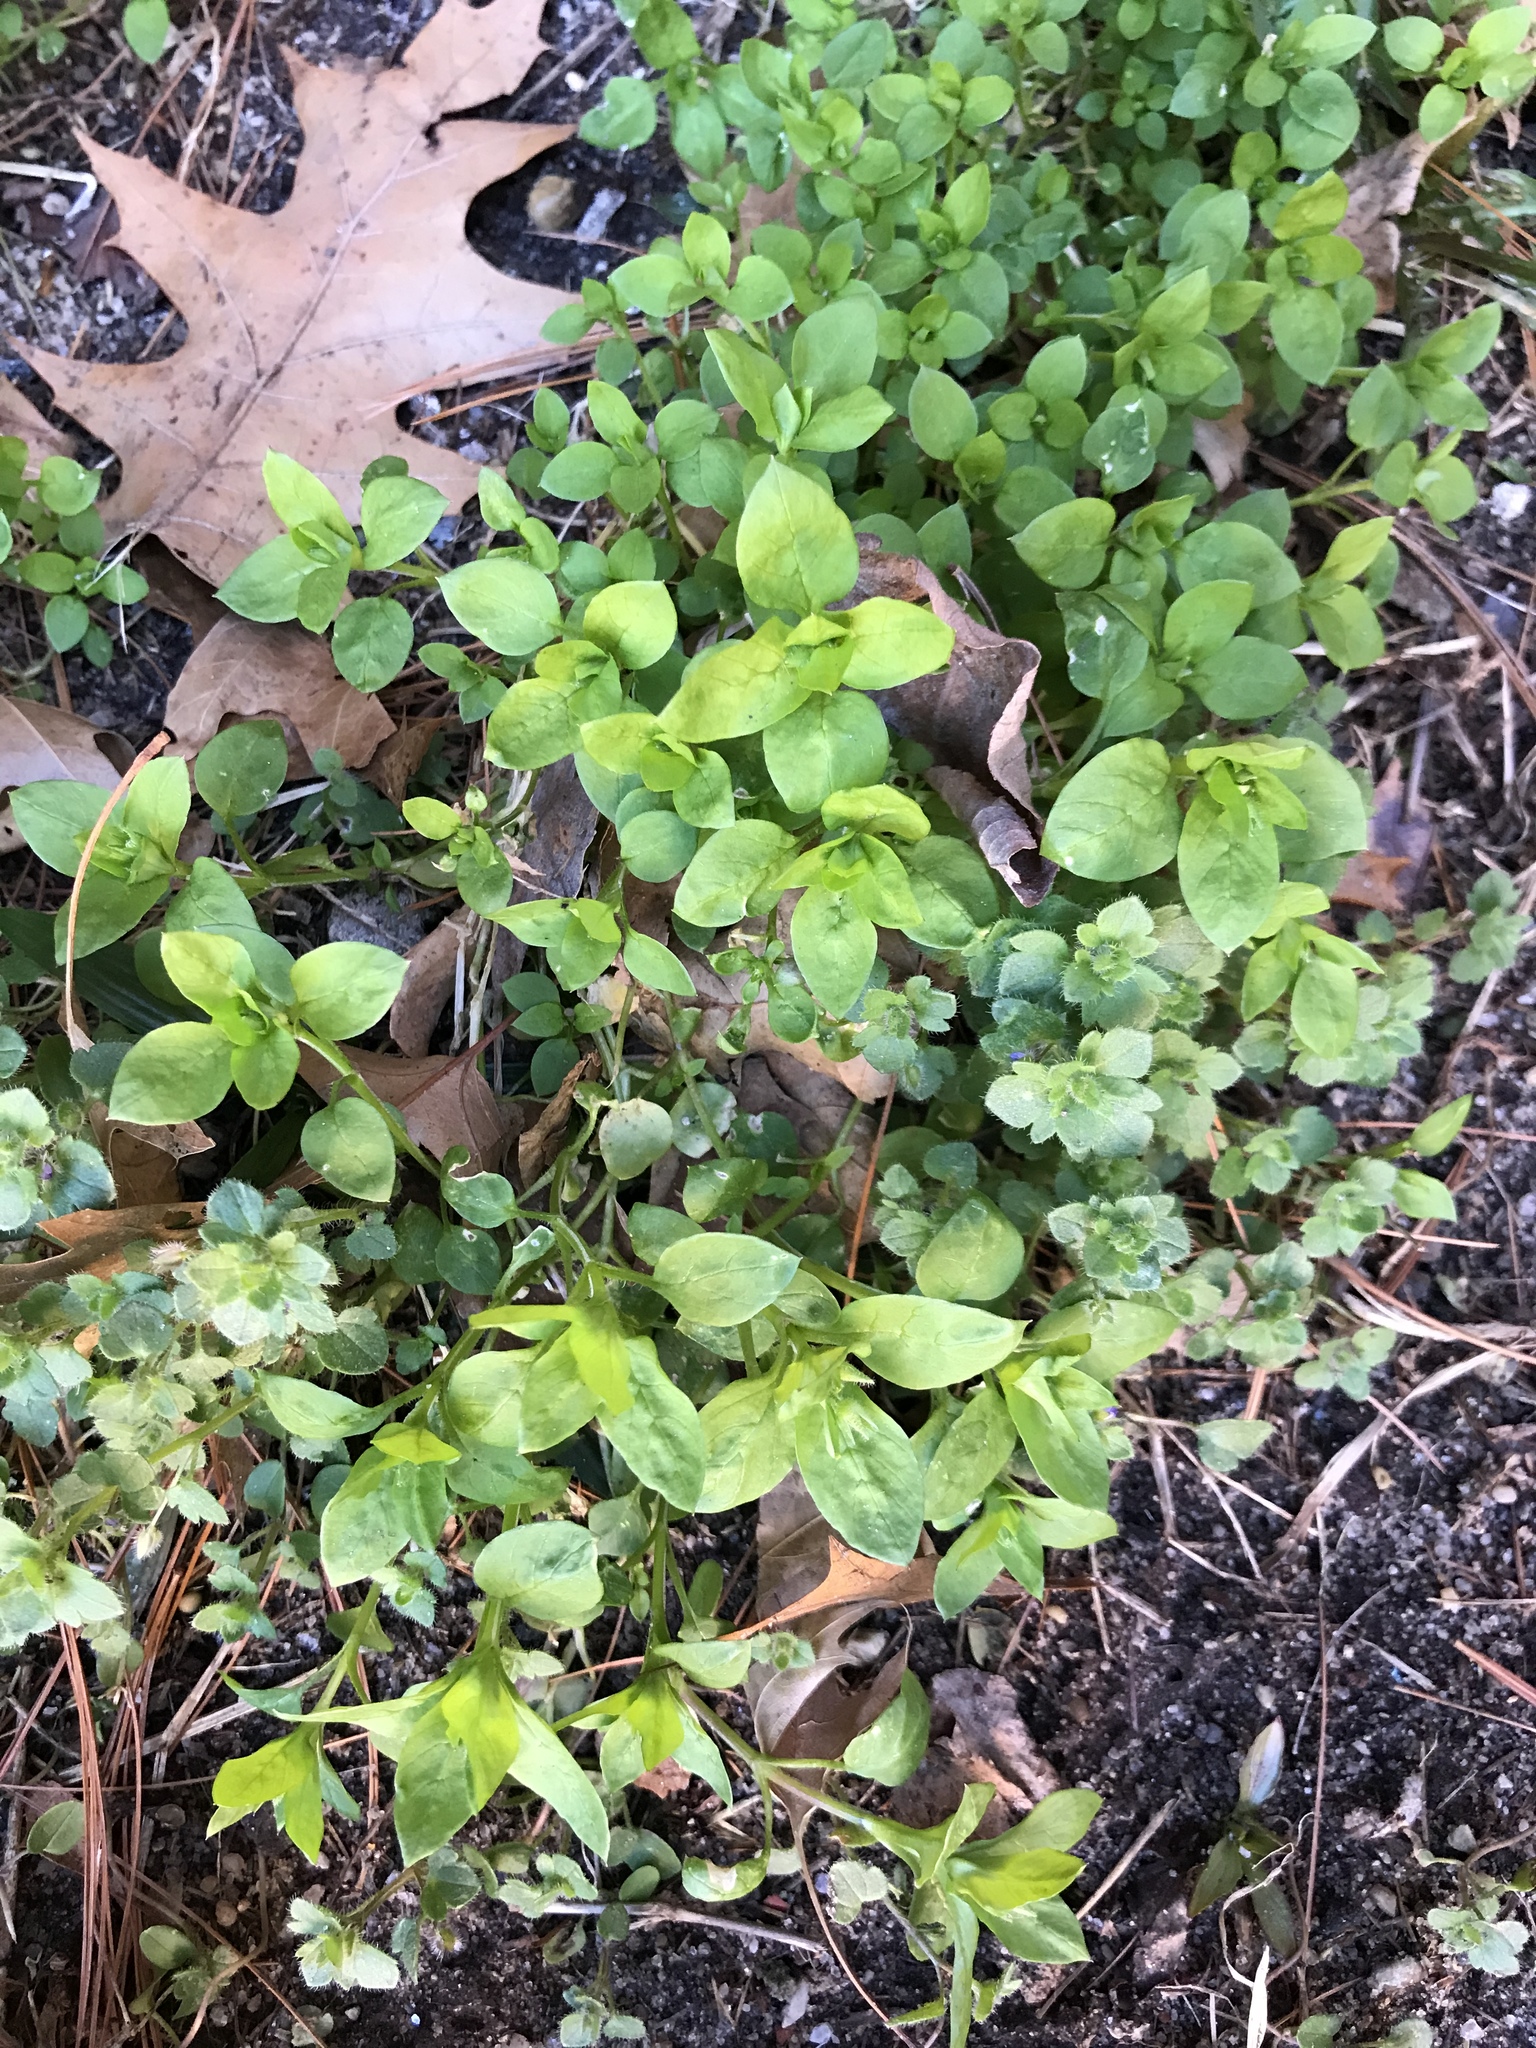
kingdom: Plantae
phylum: Tracheophyta
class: Magnoliopsida
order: Caryophyllales
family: Caryophyllaceae
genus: Stellaria
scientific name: Stellaria media
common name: Common chickweed
